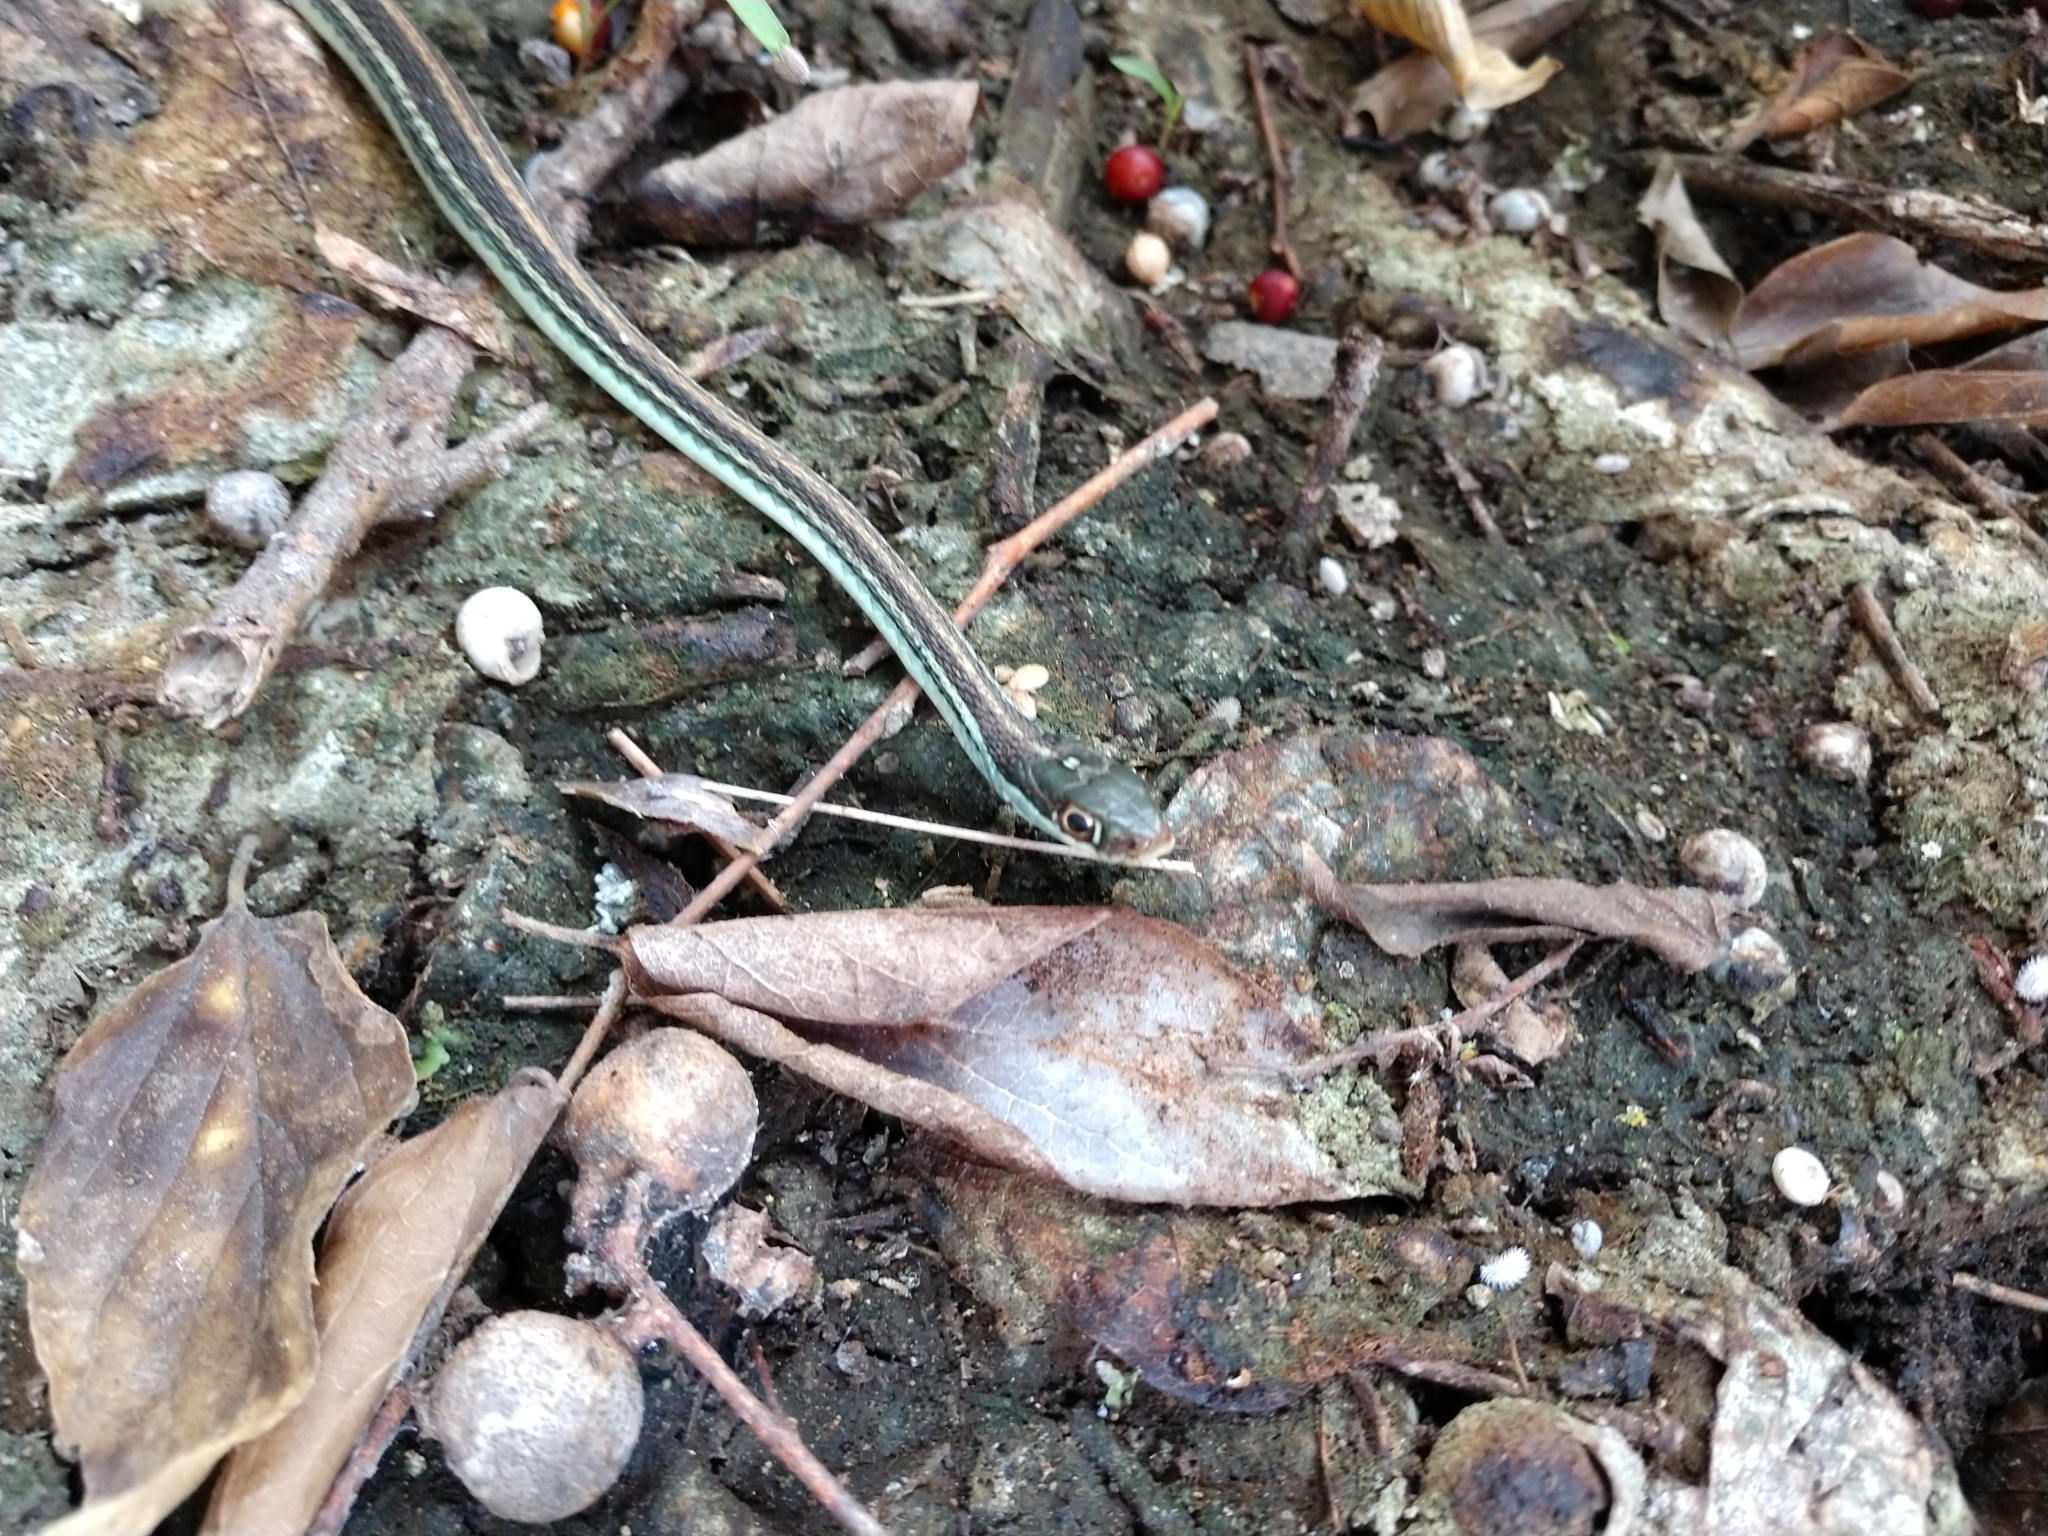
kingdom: Animalia
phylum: Chordata
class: Squamata
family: Colubridae
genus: Thamnophis
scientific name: Thamnophis proximus
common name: Western ribbon snake
